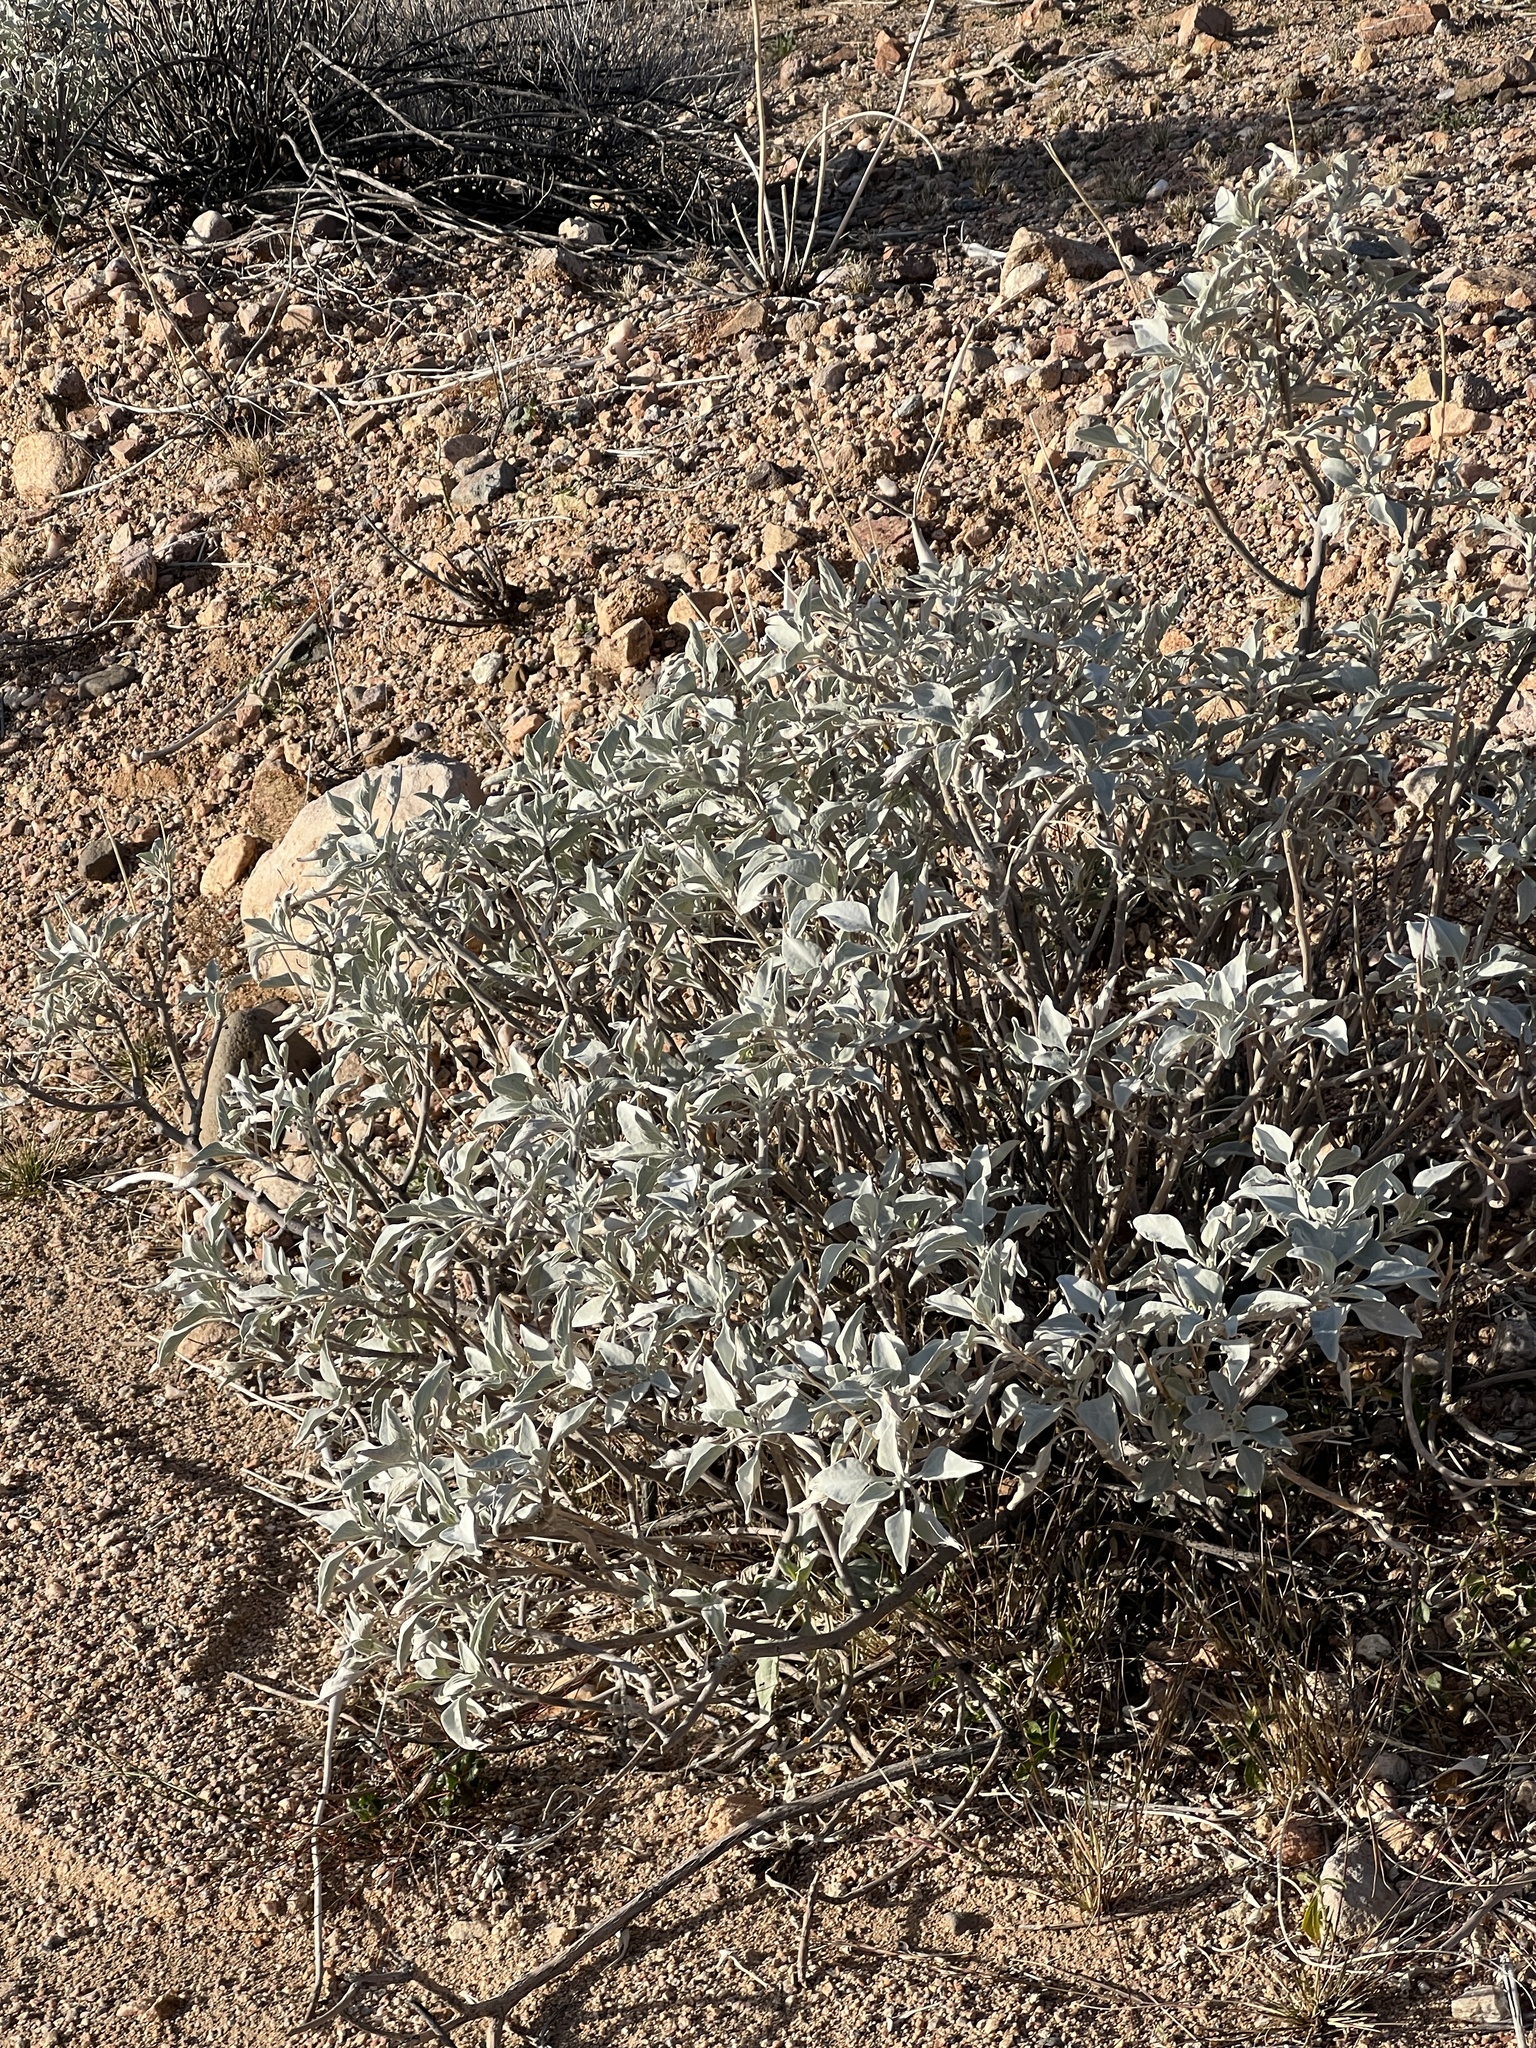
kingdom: Plantae
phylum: Tracheophyta
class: Magnoliopsida
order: Asterales
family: Asteraceae
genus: Encelia
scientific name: Encelia farinosa
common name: Brittlebush
